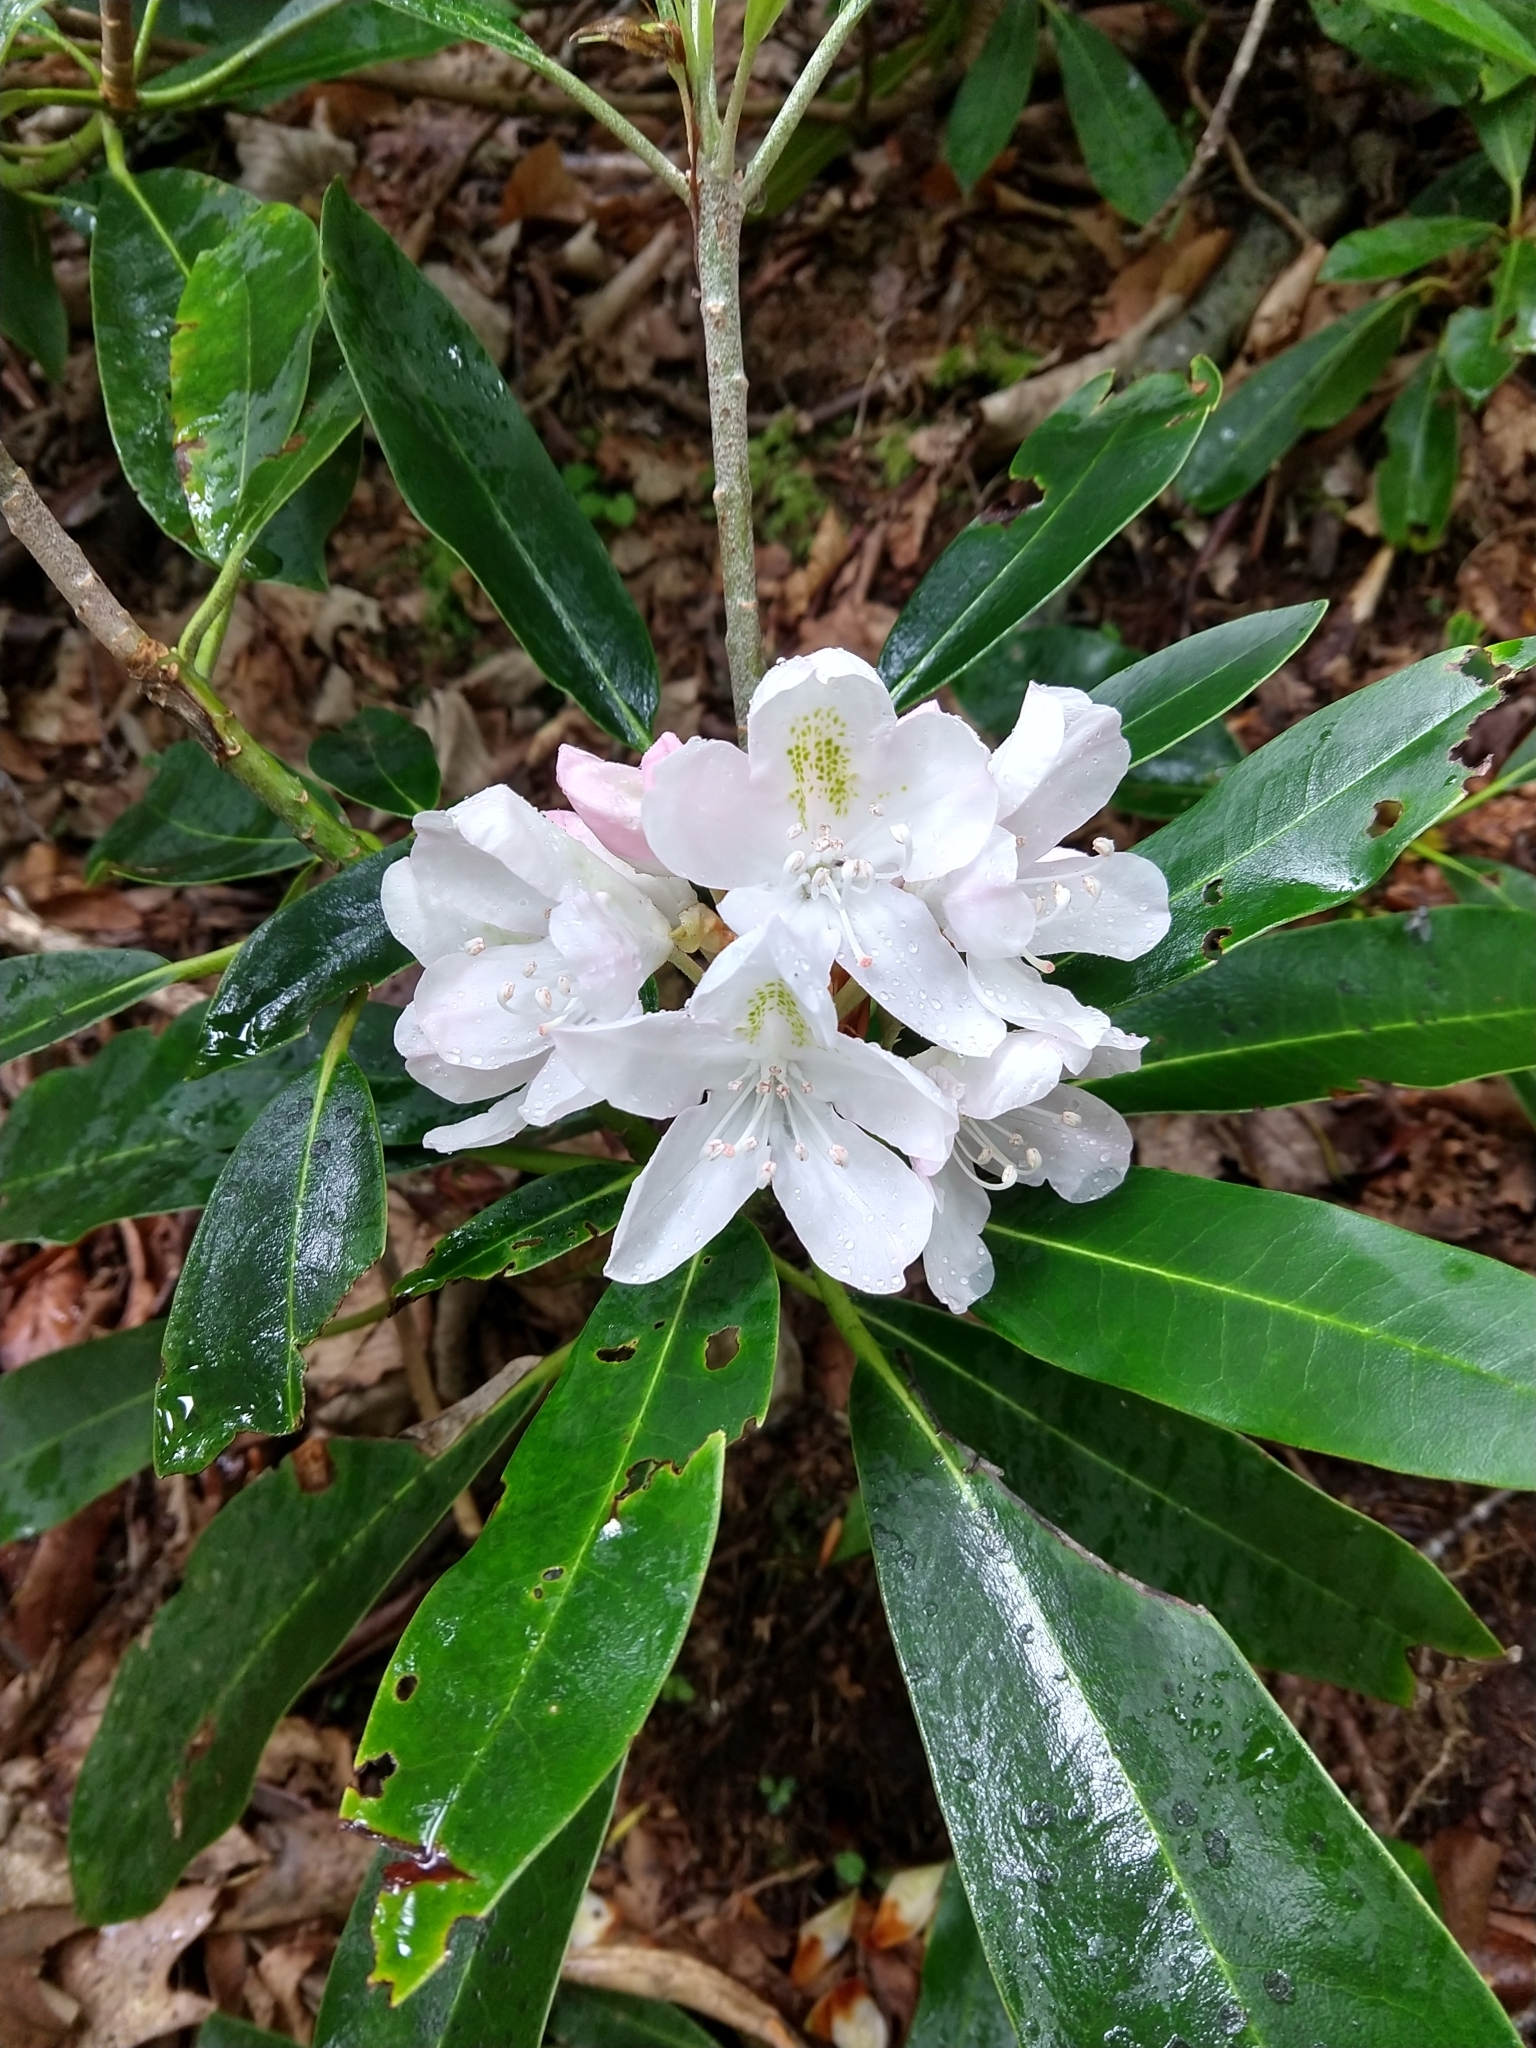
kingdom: Plantae
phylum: Tracheophyta
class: Magnoliopsida
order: Ericales
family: Ericaceae
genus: Rhododendron
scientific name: Rhododendron maximum
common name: Great rhododendron
